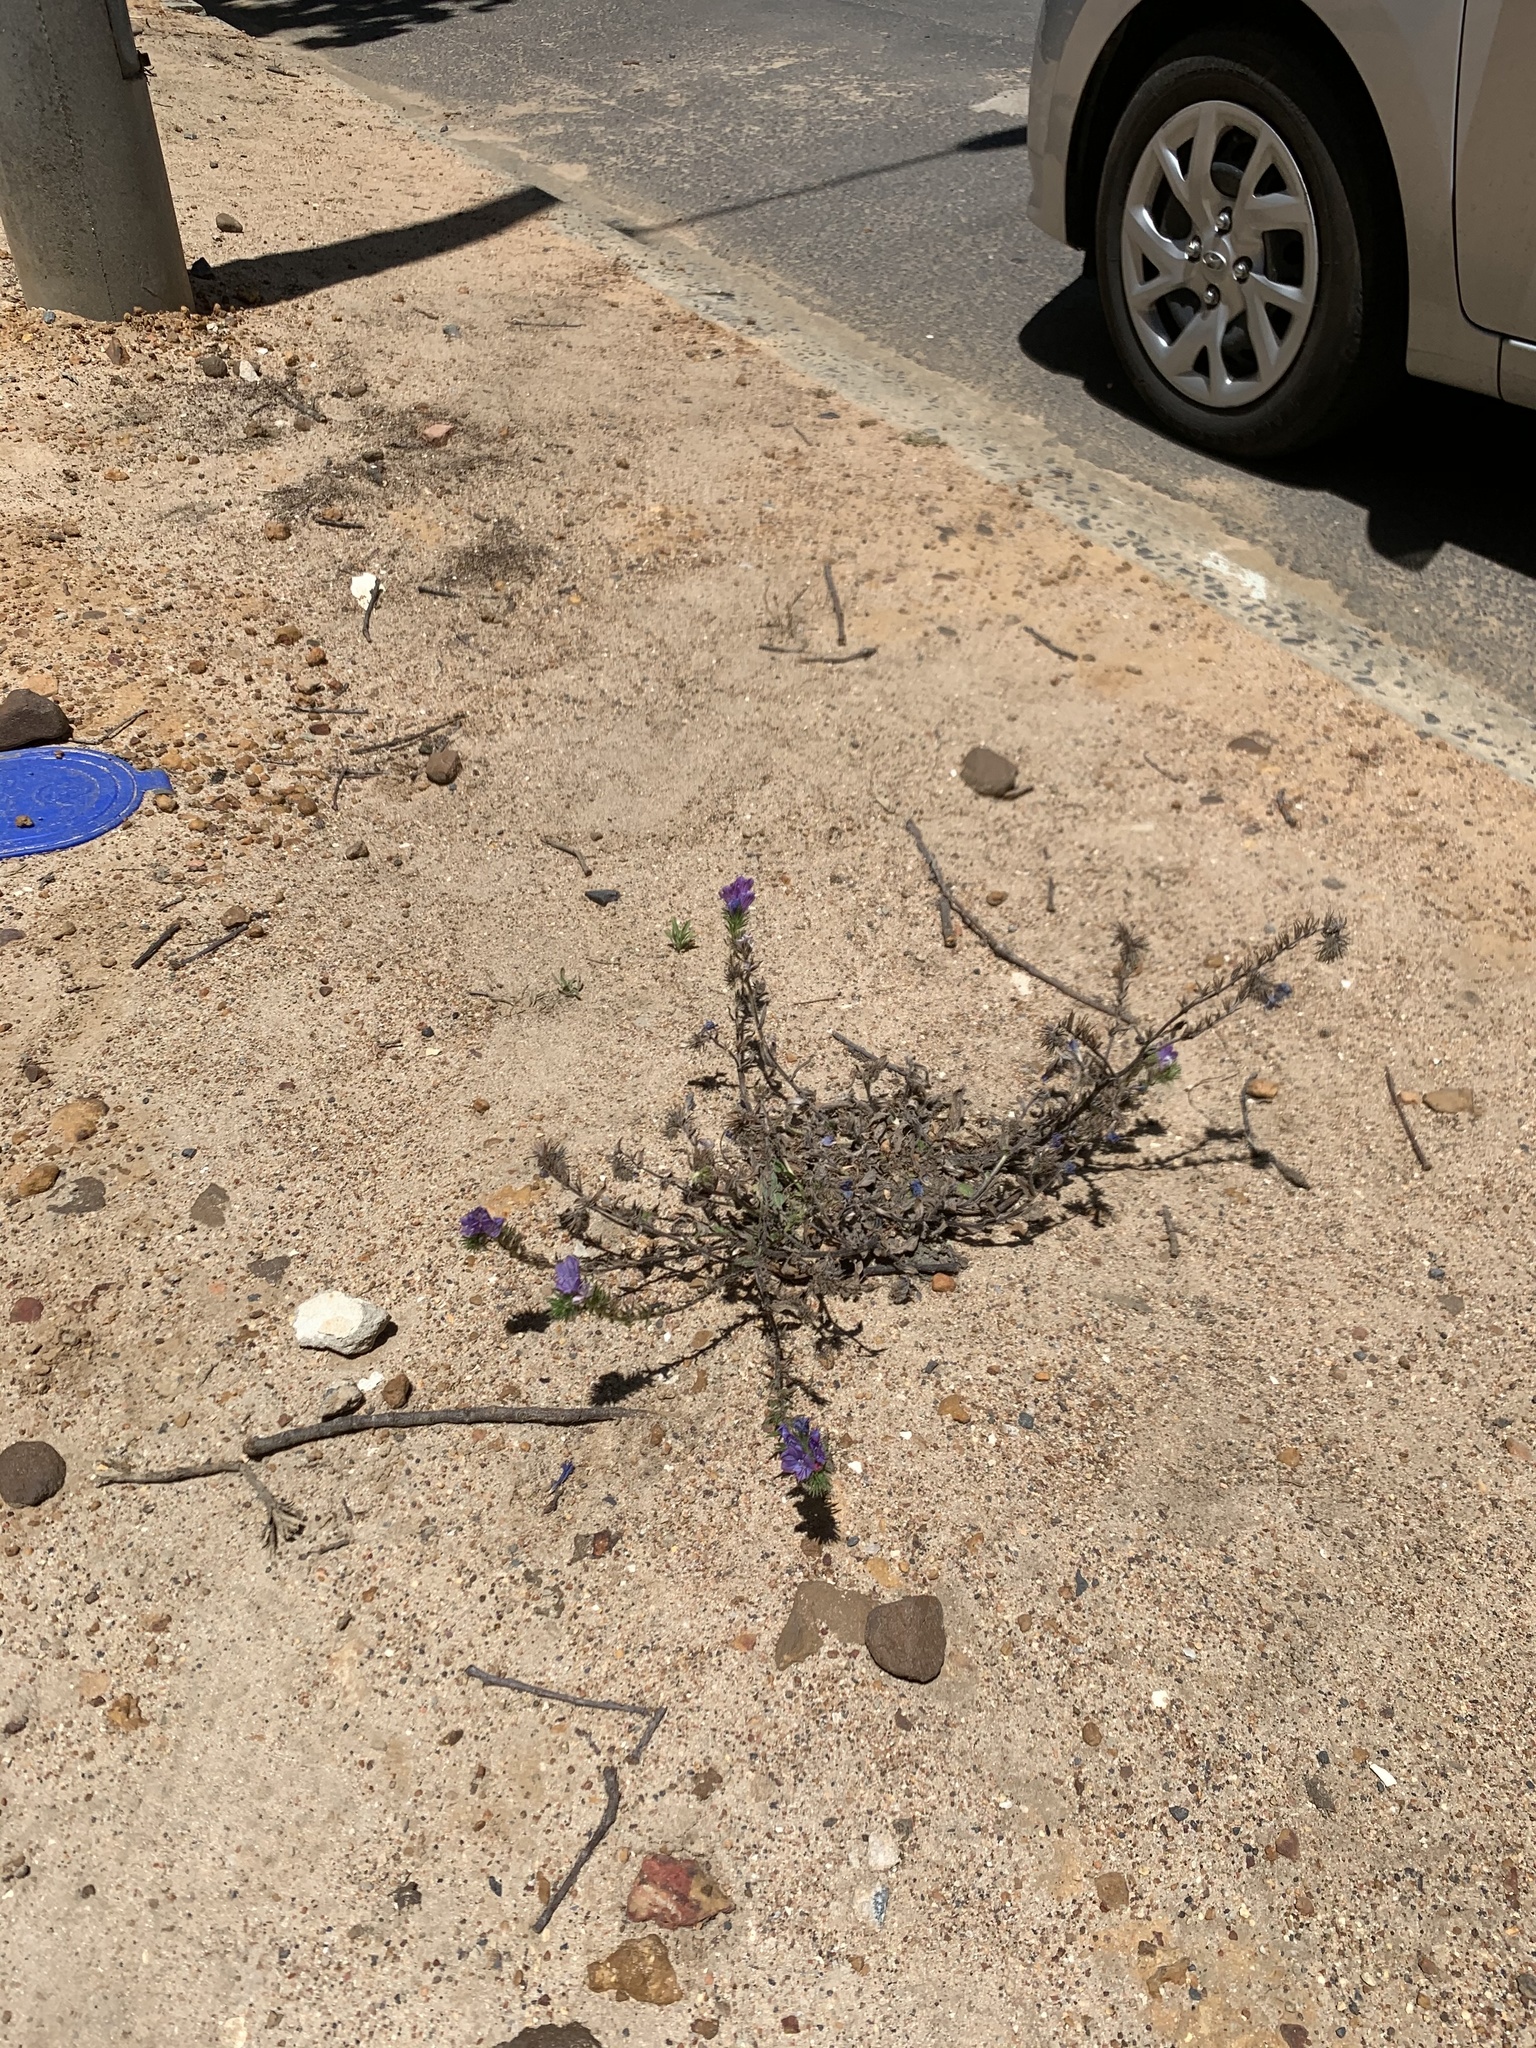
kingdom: Plantae
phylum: Tracheophyta
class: Magnoliopsida
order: Boraginales
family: Boraginaceae
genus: Echium
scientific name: Echium plantagineum
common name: Purple viper's-bugloss
